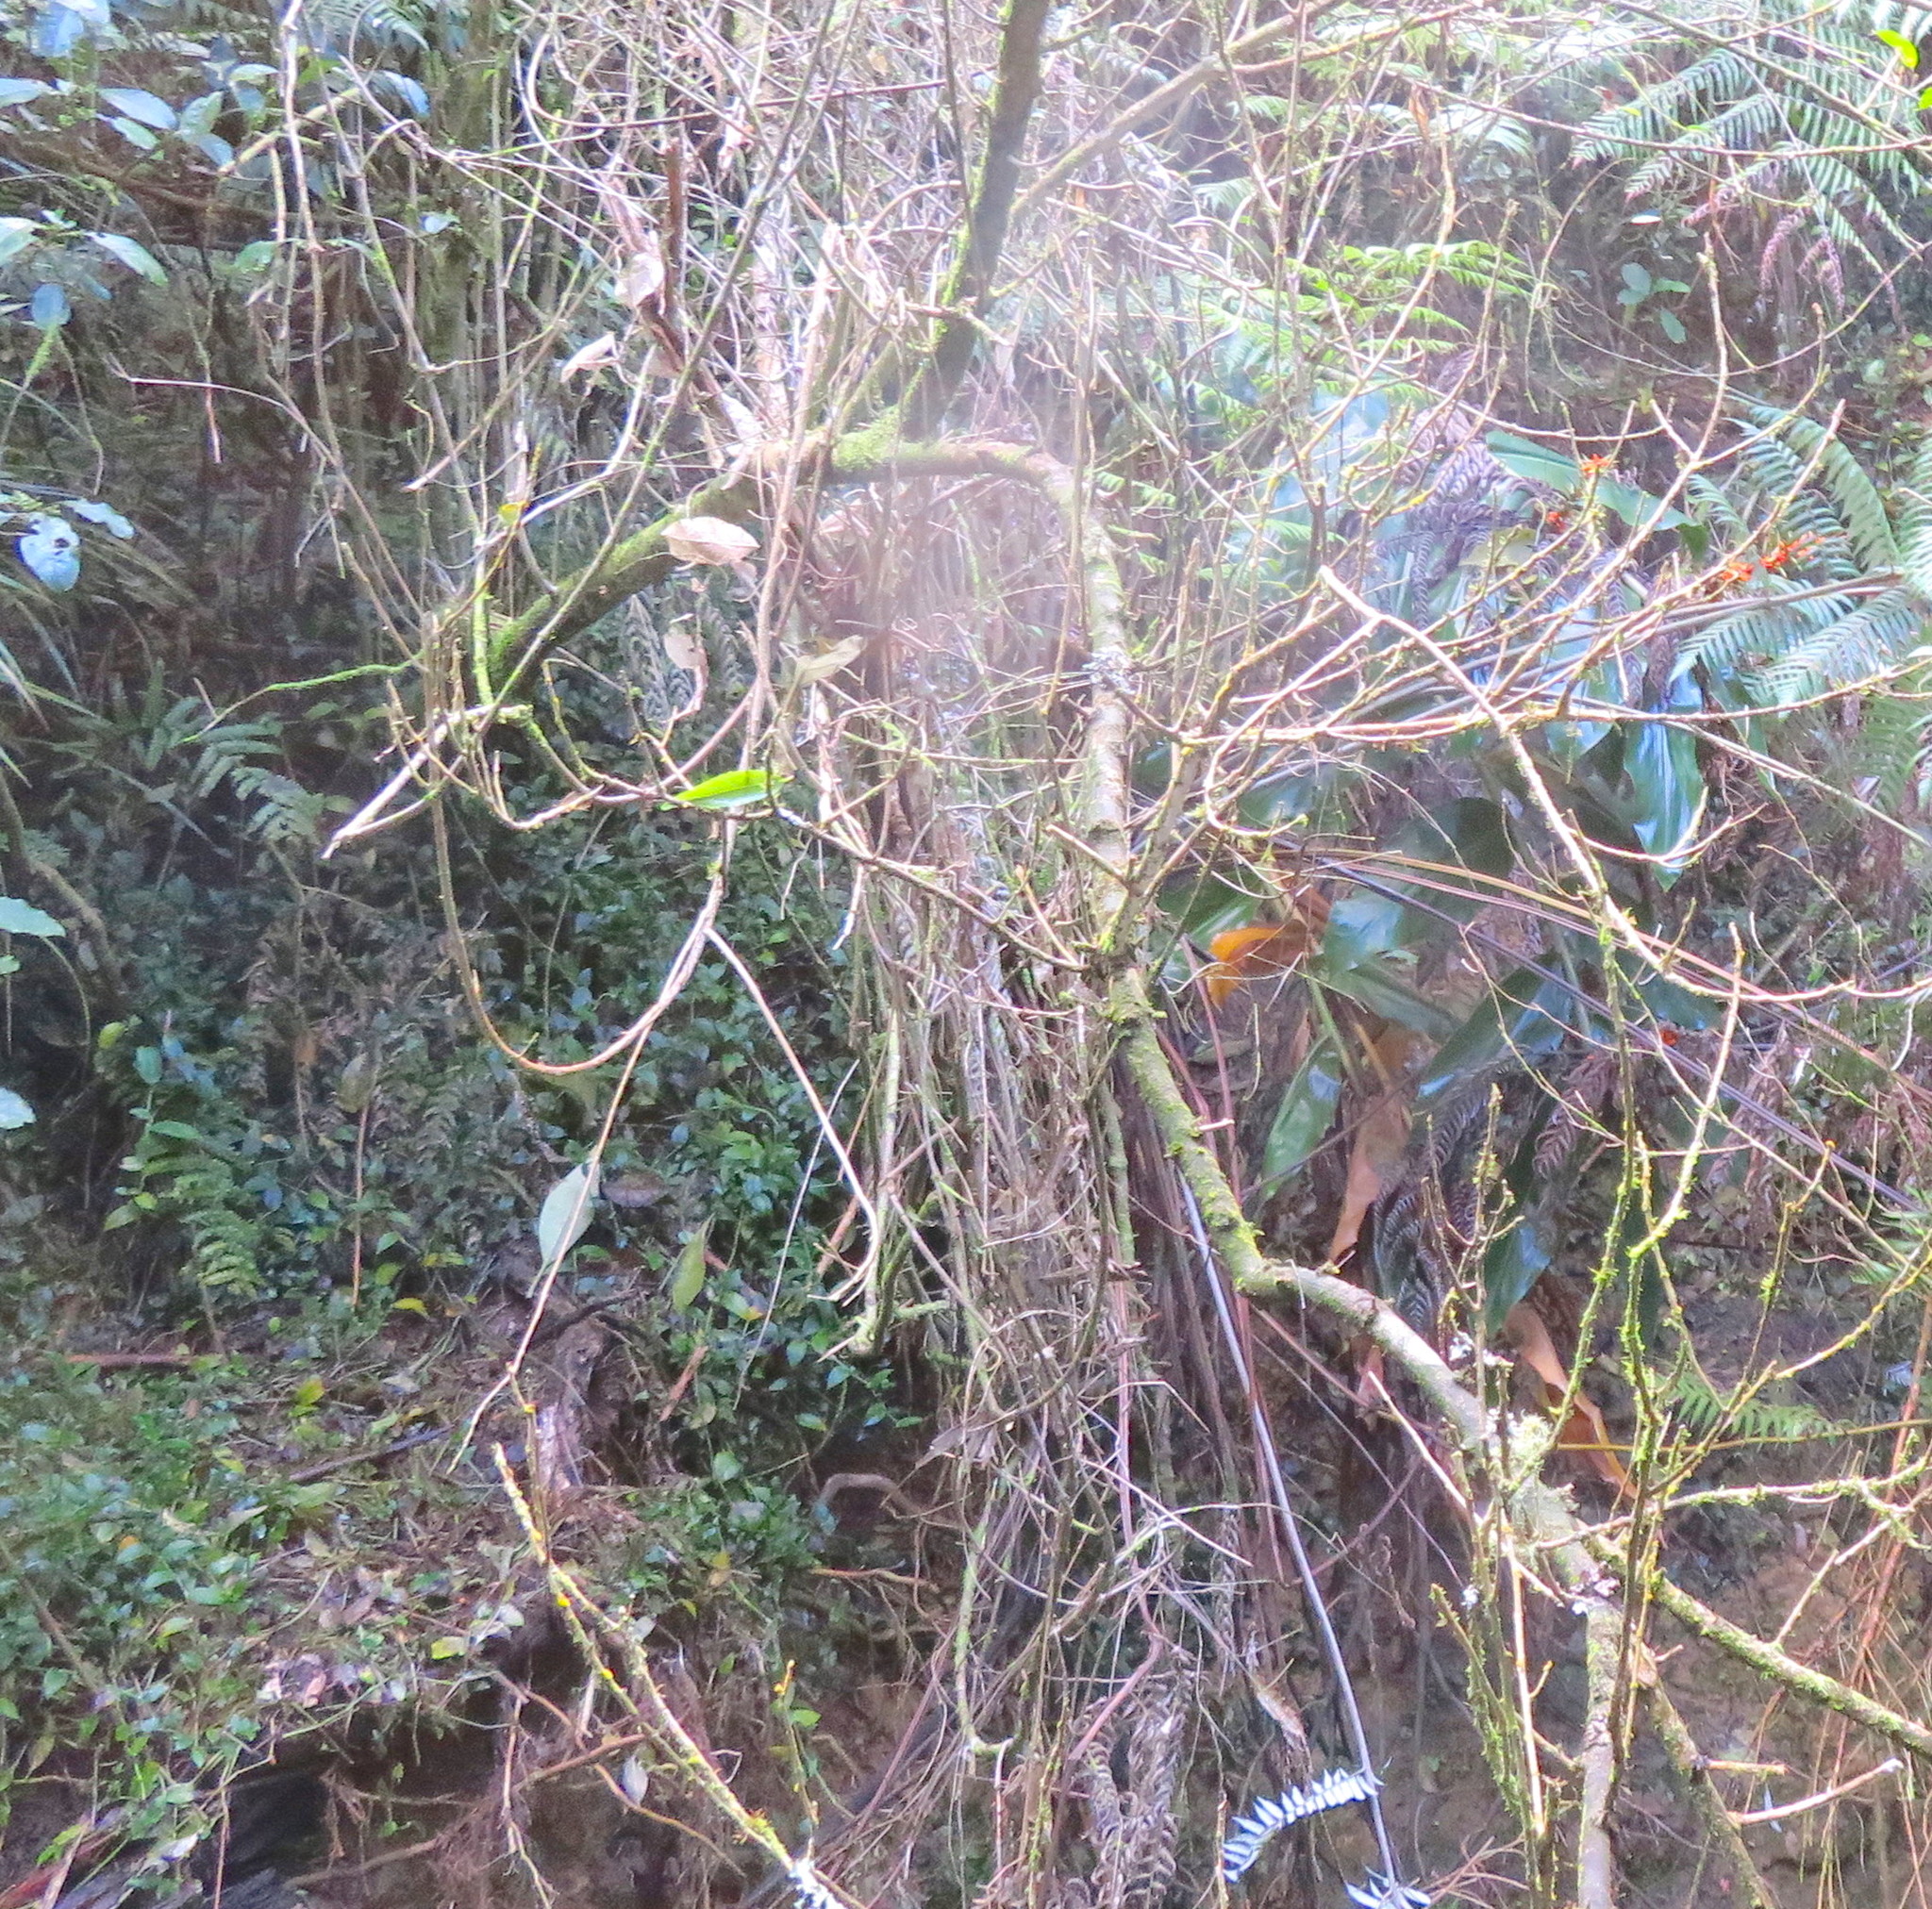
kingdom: Plantae
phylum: Tracheophyta
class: Liliopsida
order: Commelinales
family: Commelinaceae
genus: Tradescantia
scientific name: Tradescantia fluminensis
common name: Wandering-jew
